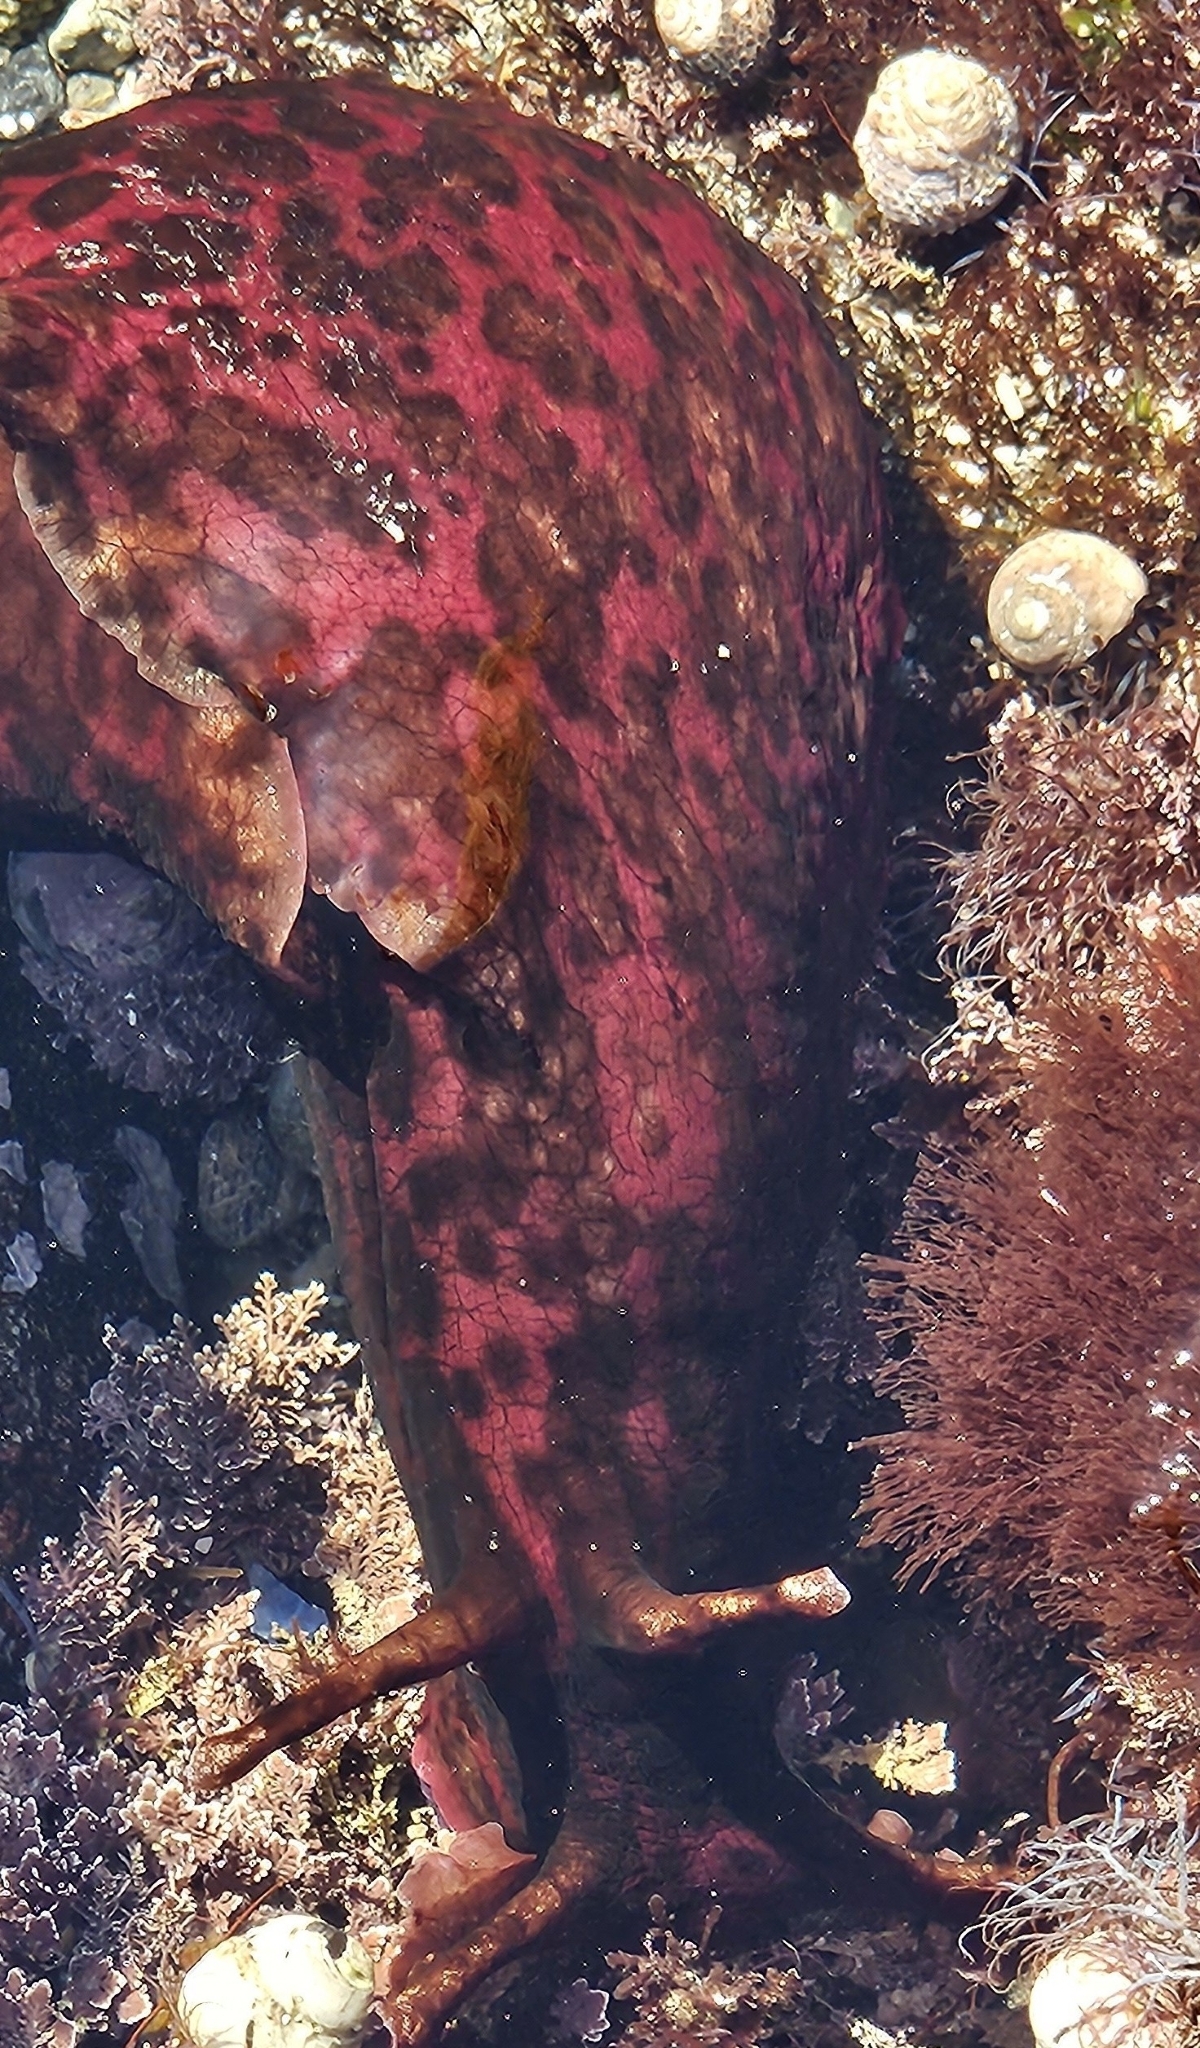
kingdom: Animalia
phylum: Mollusca
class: Gastropoda
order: Aplysiida
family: Aplysiidae
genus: Aplysia
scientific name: Aplysia californica
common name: California seahare
